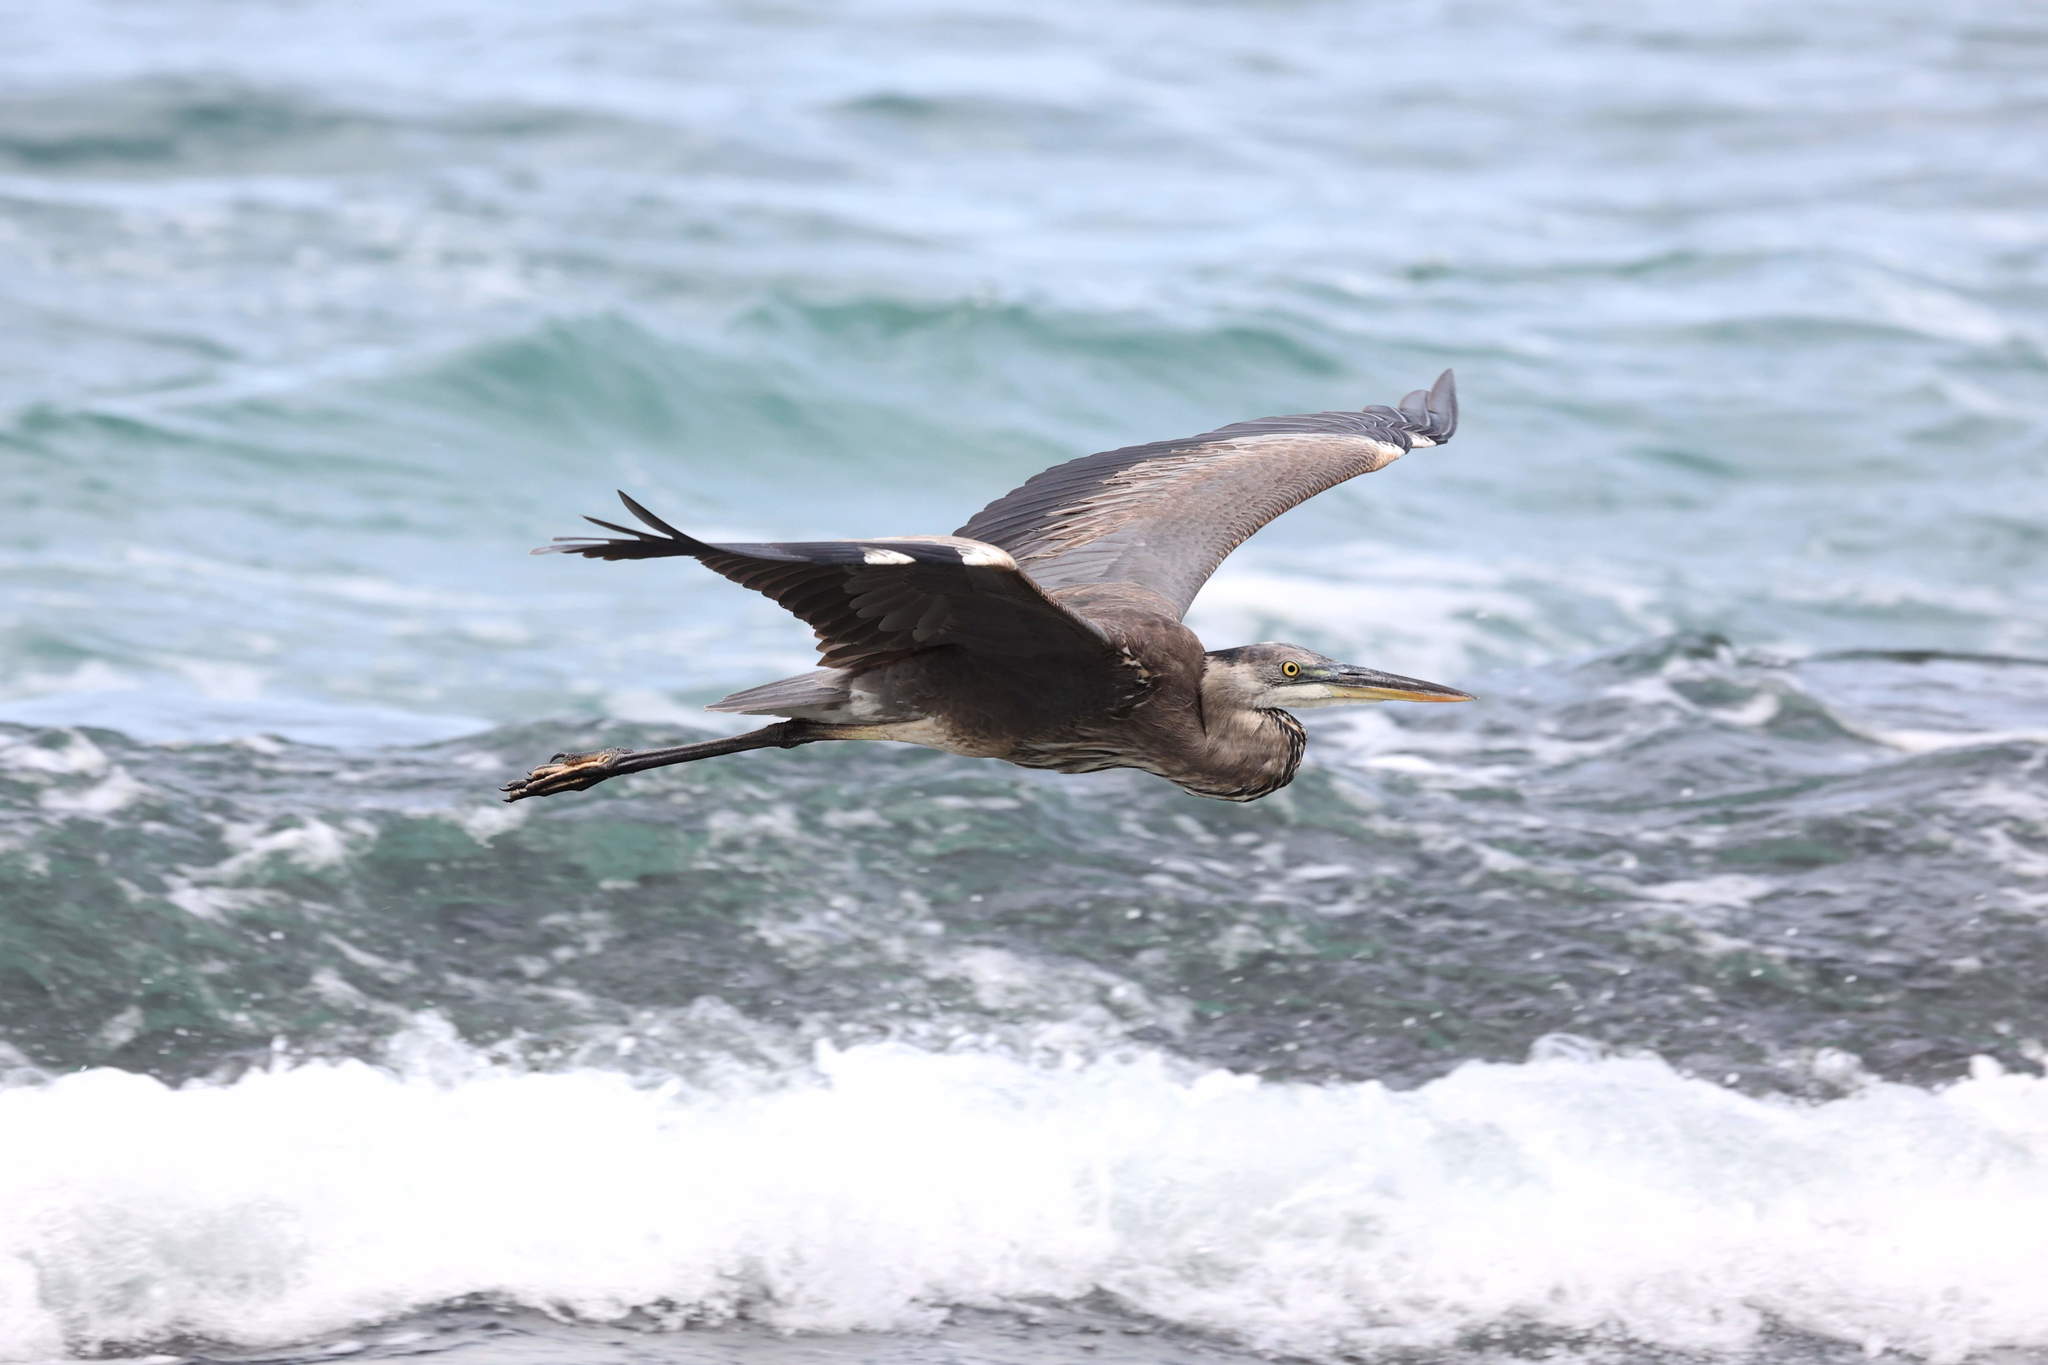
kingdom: Animalia
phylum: Chordata
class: Aves
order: Pelecaniformes
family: Ardeidae
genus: Ardea
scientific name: Ardea herodias
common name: Great blue heron
